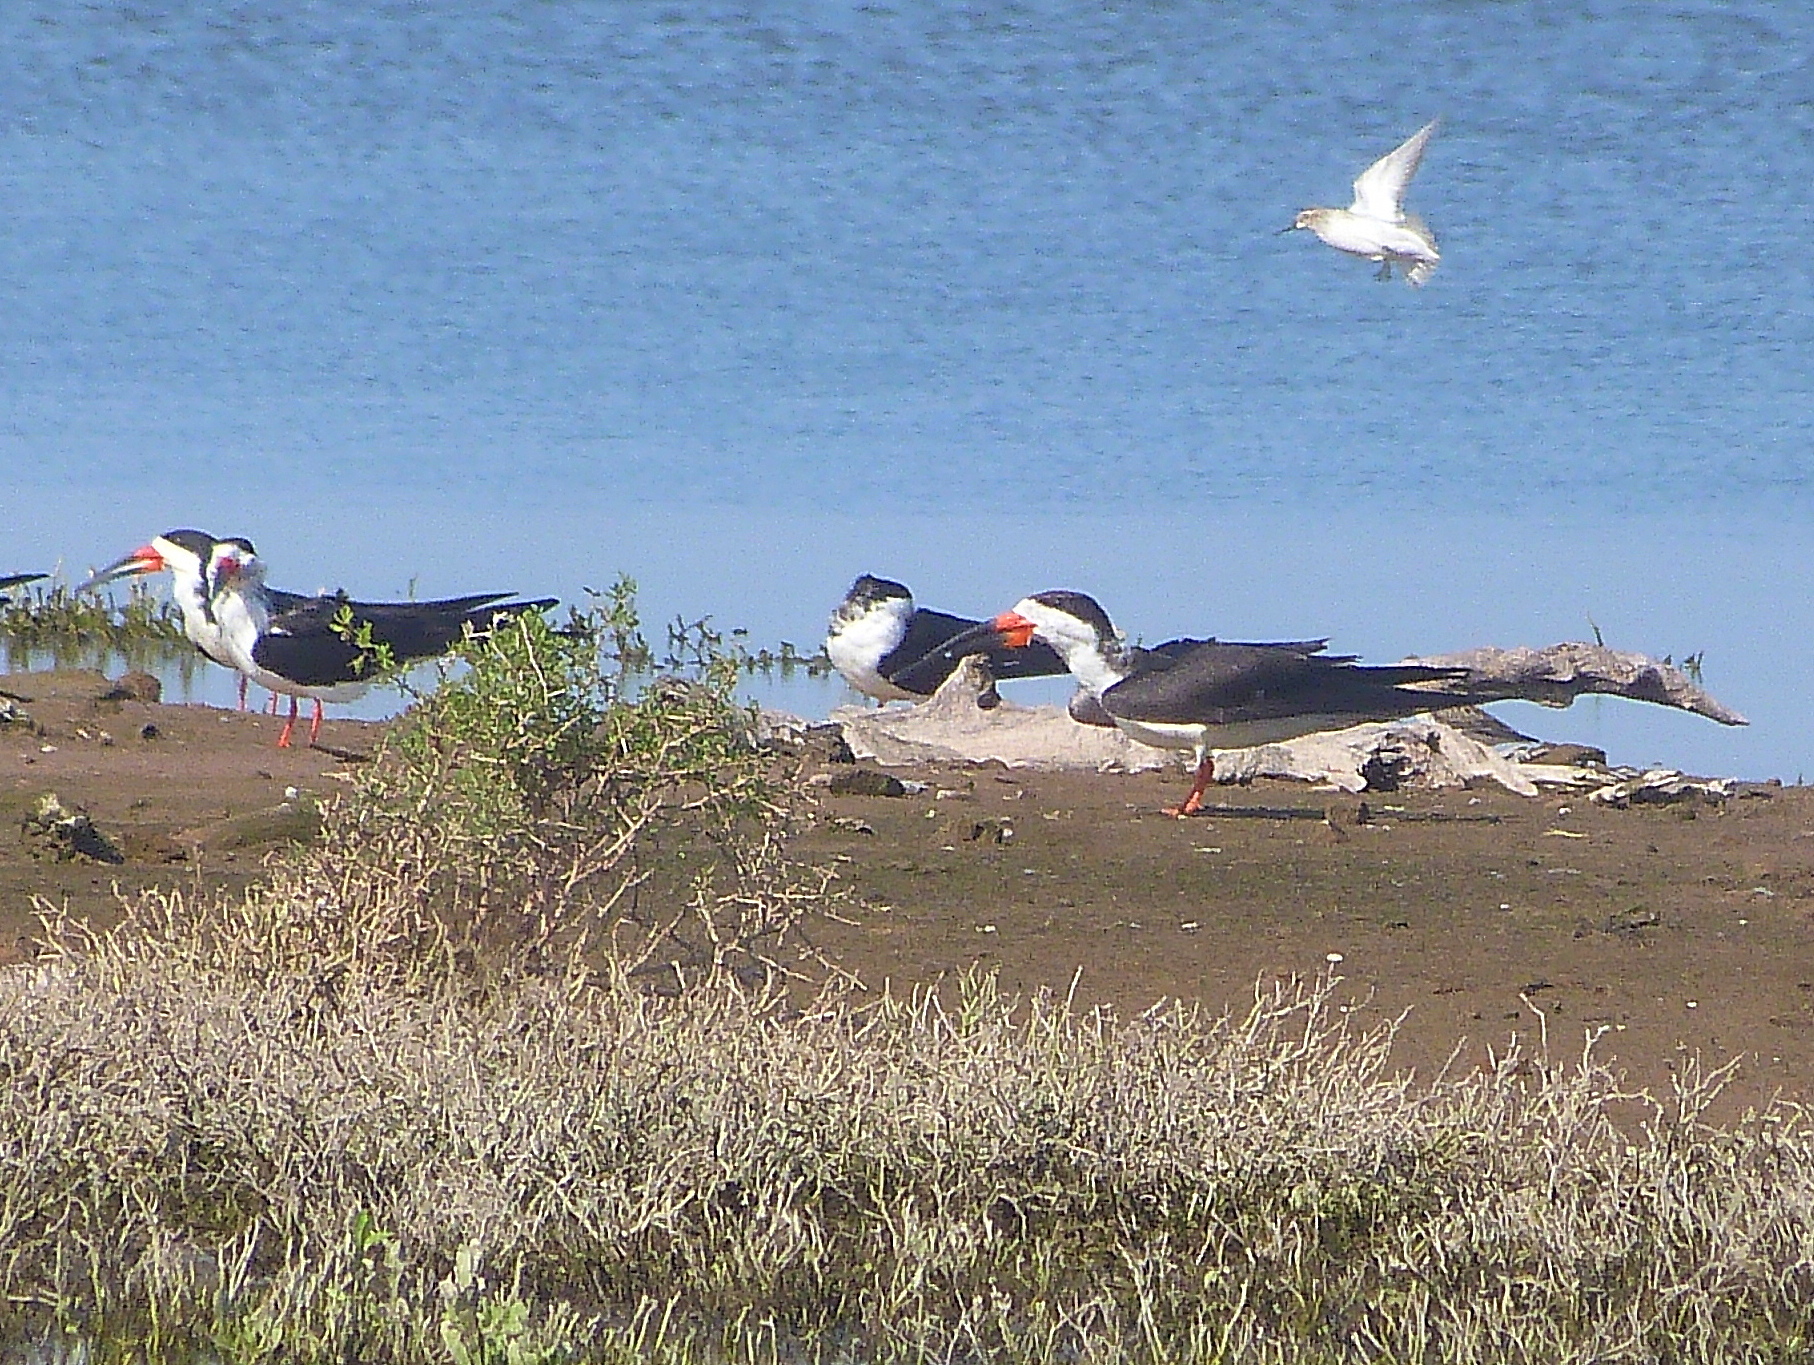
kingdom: Animalia
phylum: Chordata
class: Aves
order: Charadriiformes
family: Laridae
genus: Rynchops
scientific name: Rynchops niger
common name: Black skimmer
